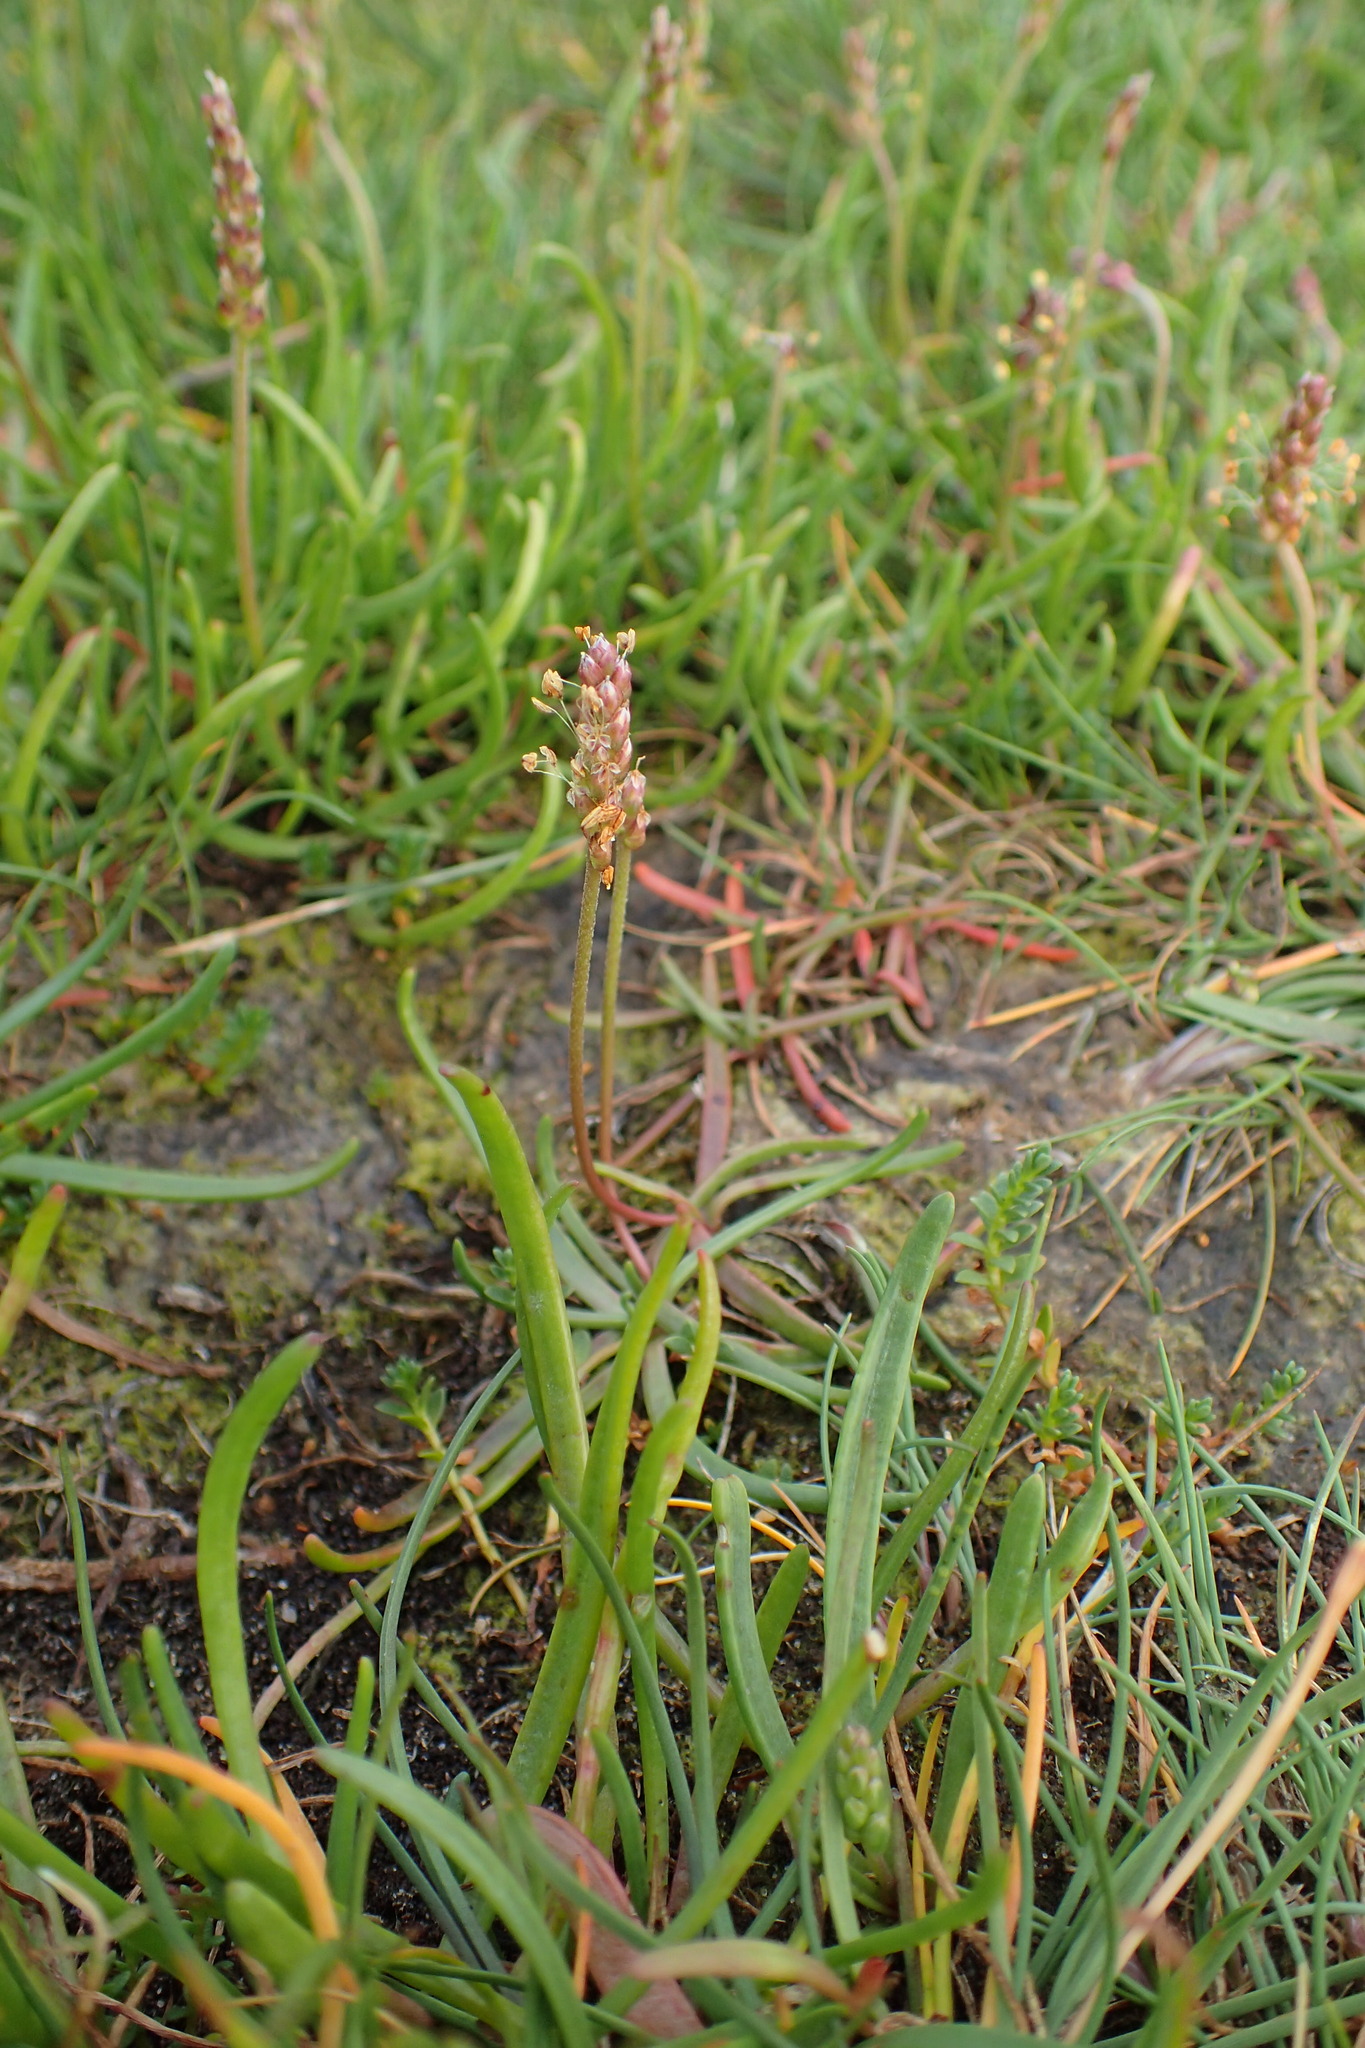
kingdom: Plantae
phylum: Tracheophyta
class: Magnoliopsida
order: Lamiales
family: Plantaginaceae
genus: Plantago
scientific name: Plantago maritima
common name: Sea plantain
